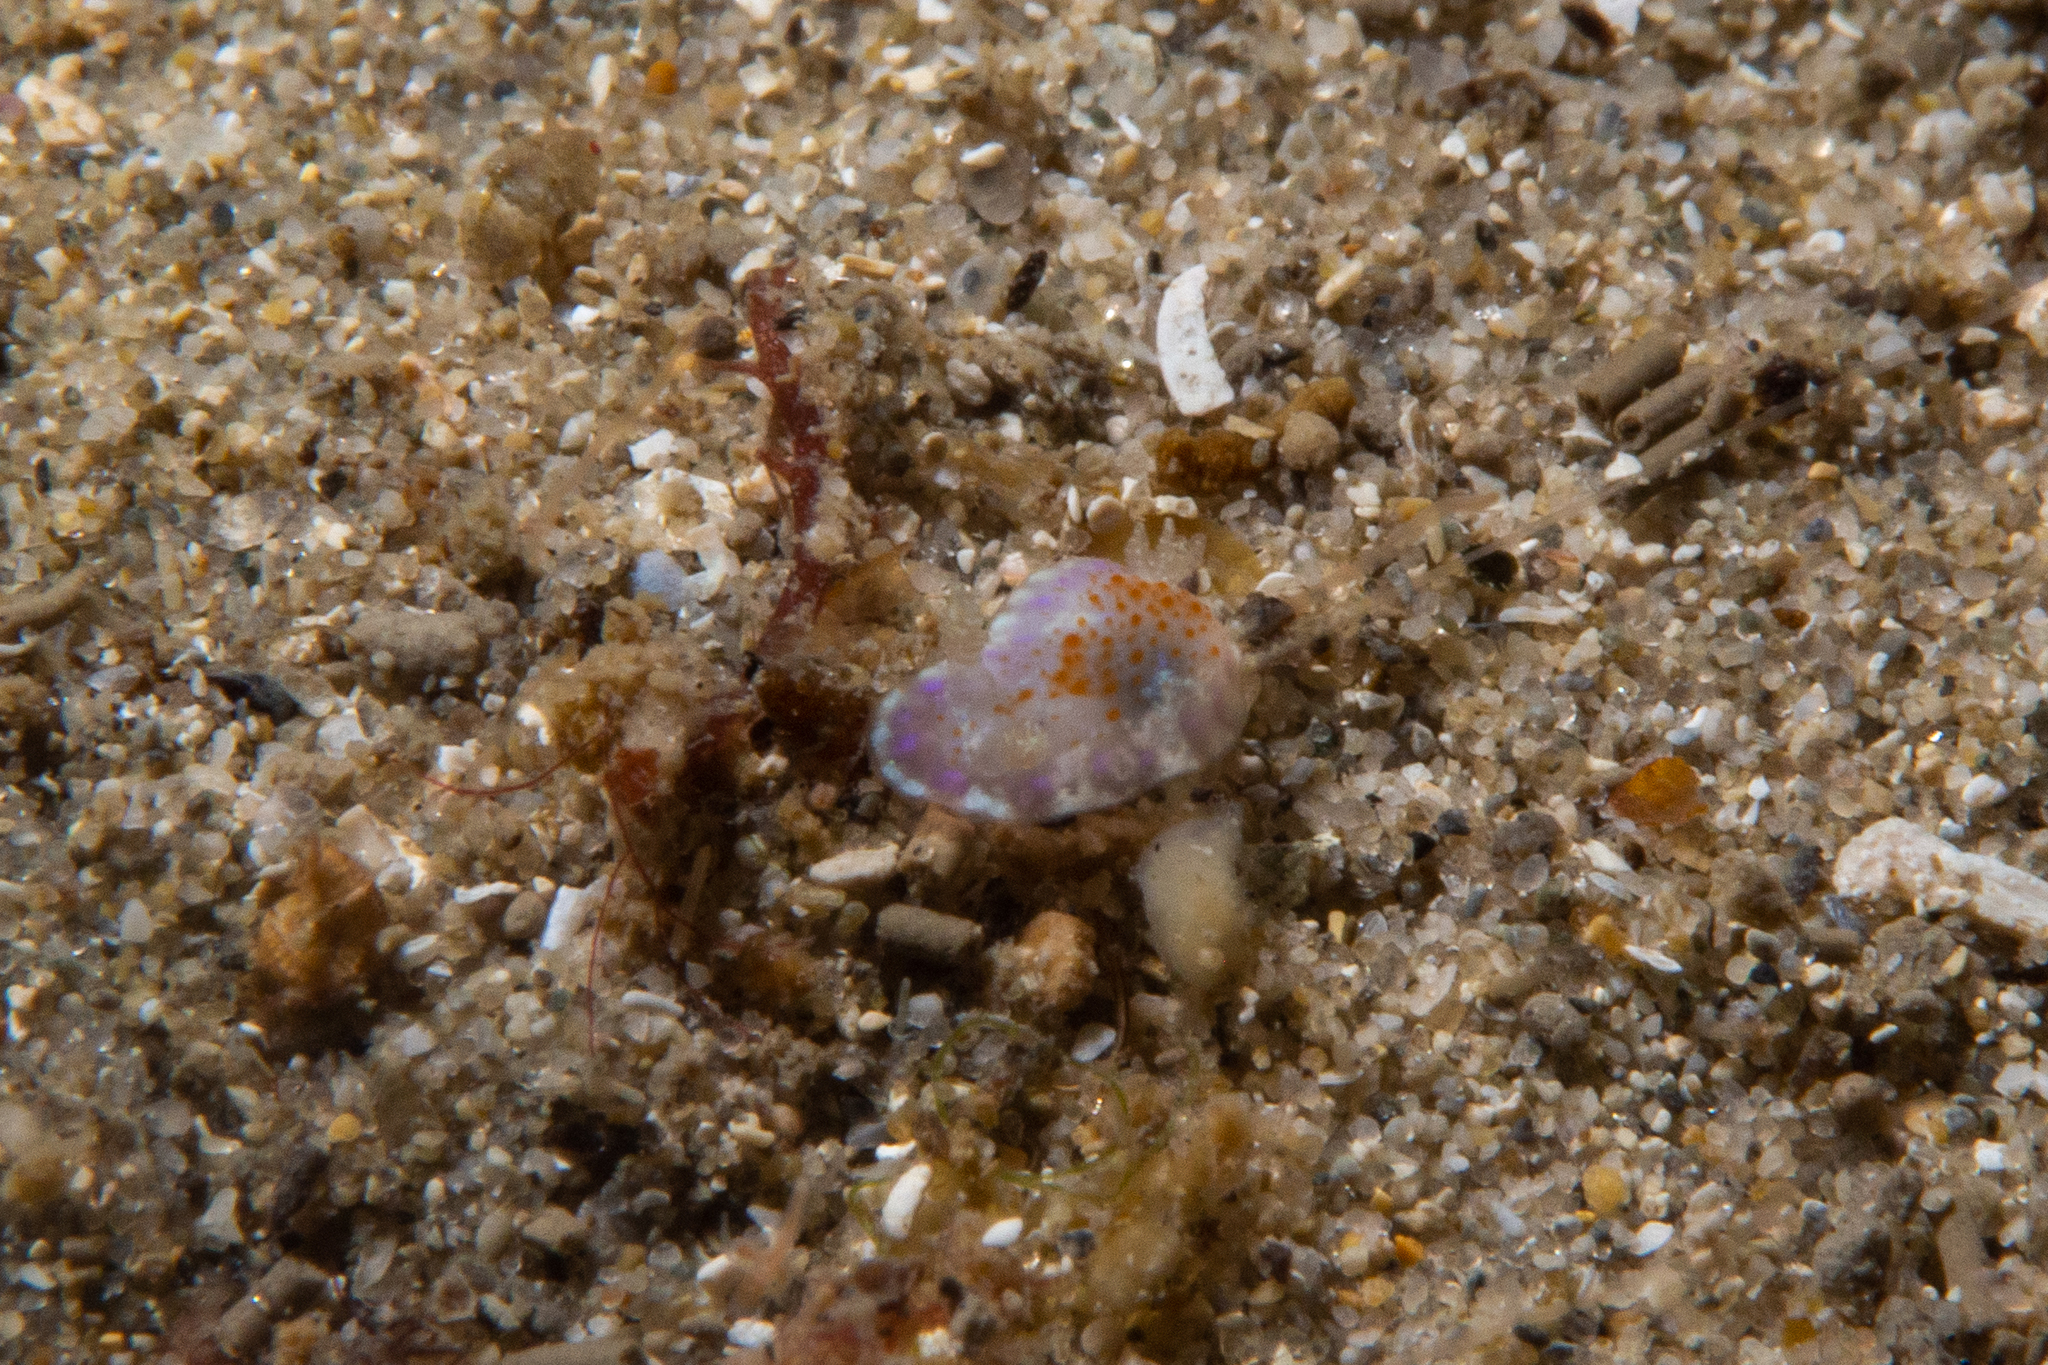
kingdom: Animalia
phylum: Mollusca
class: Gastropoda
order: Nudibranchia
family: Chromodorididae
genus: Chromodoris
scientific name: Chromodoris ambigua
